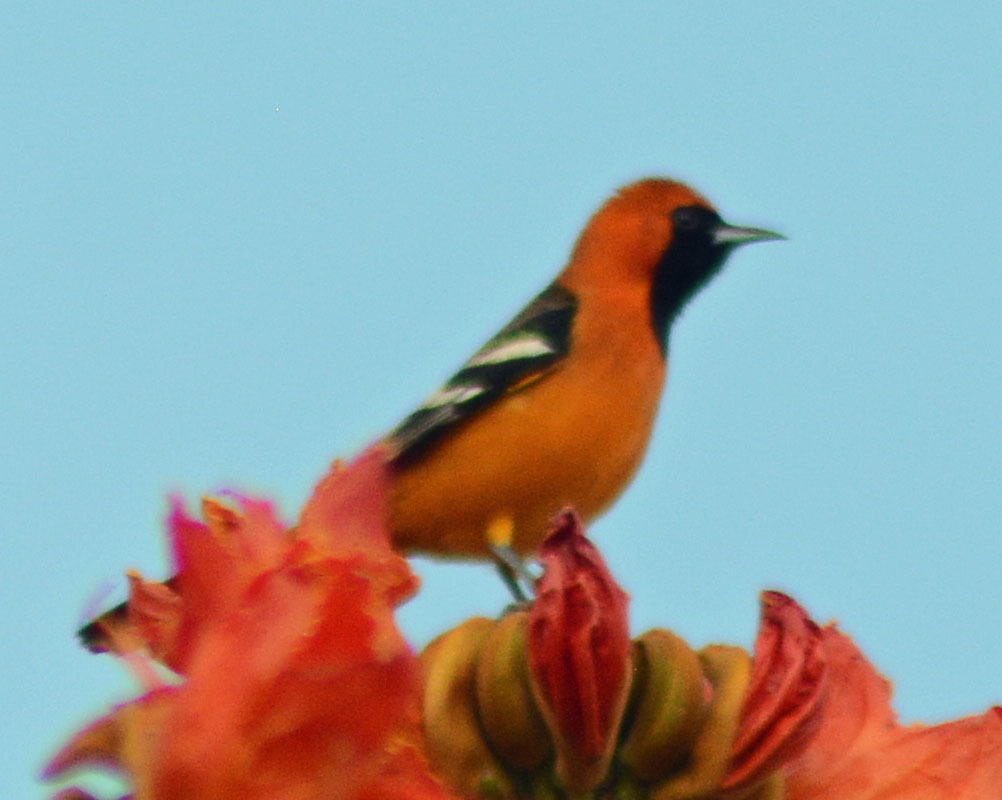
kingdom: Animalia
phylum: Chordata
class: Aves
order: Passeriformes
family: Icteridae
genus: Icterus
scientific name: Icterus cucullatus
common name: Hooded oriole
